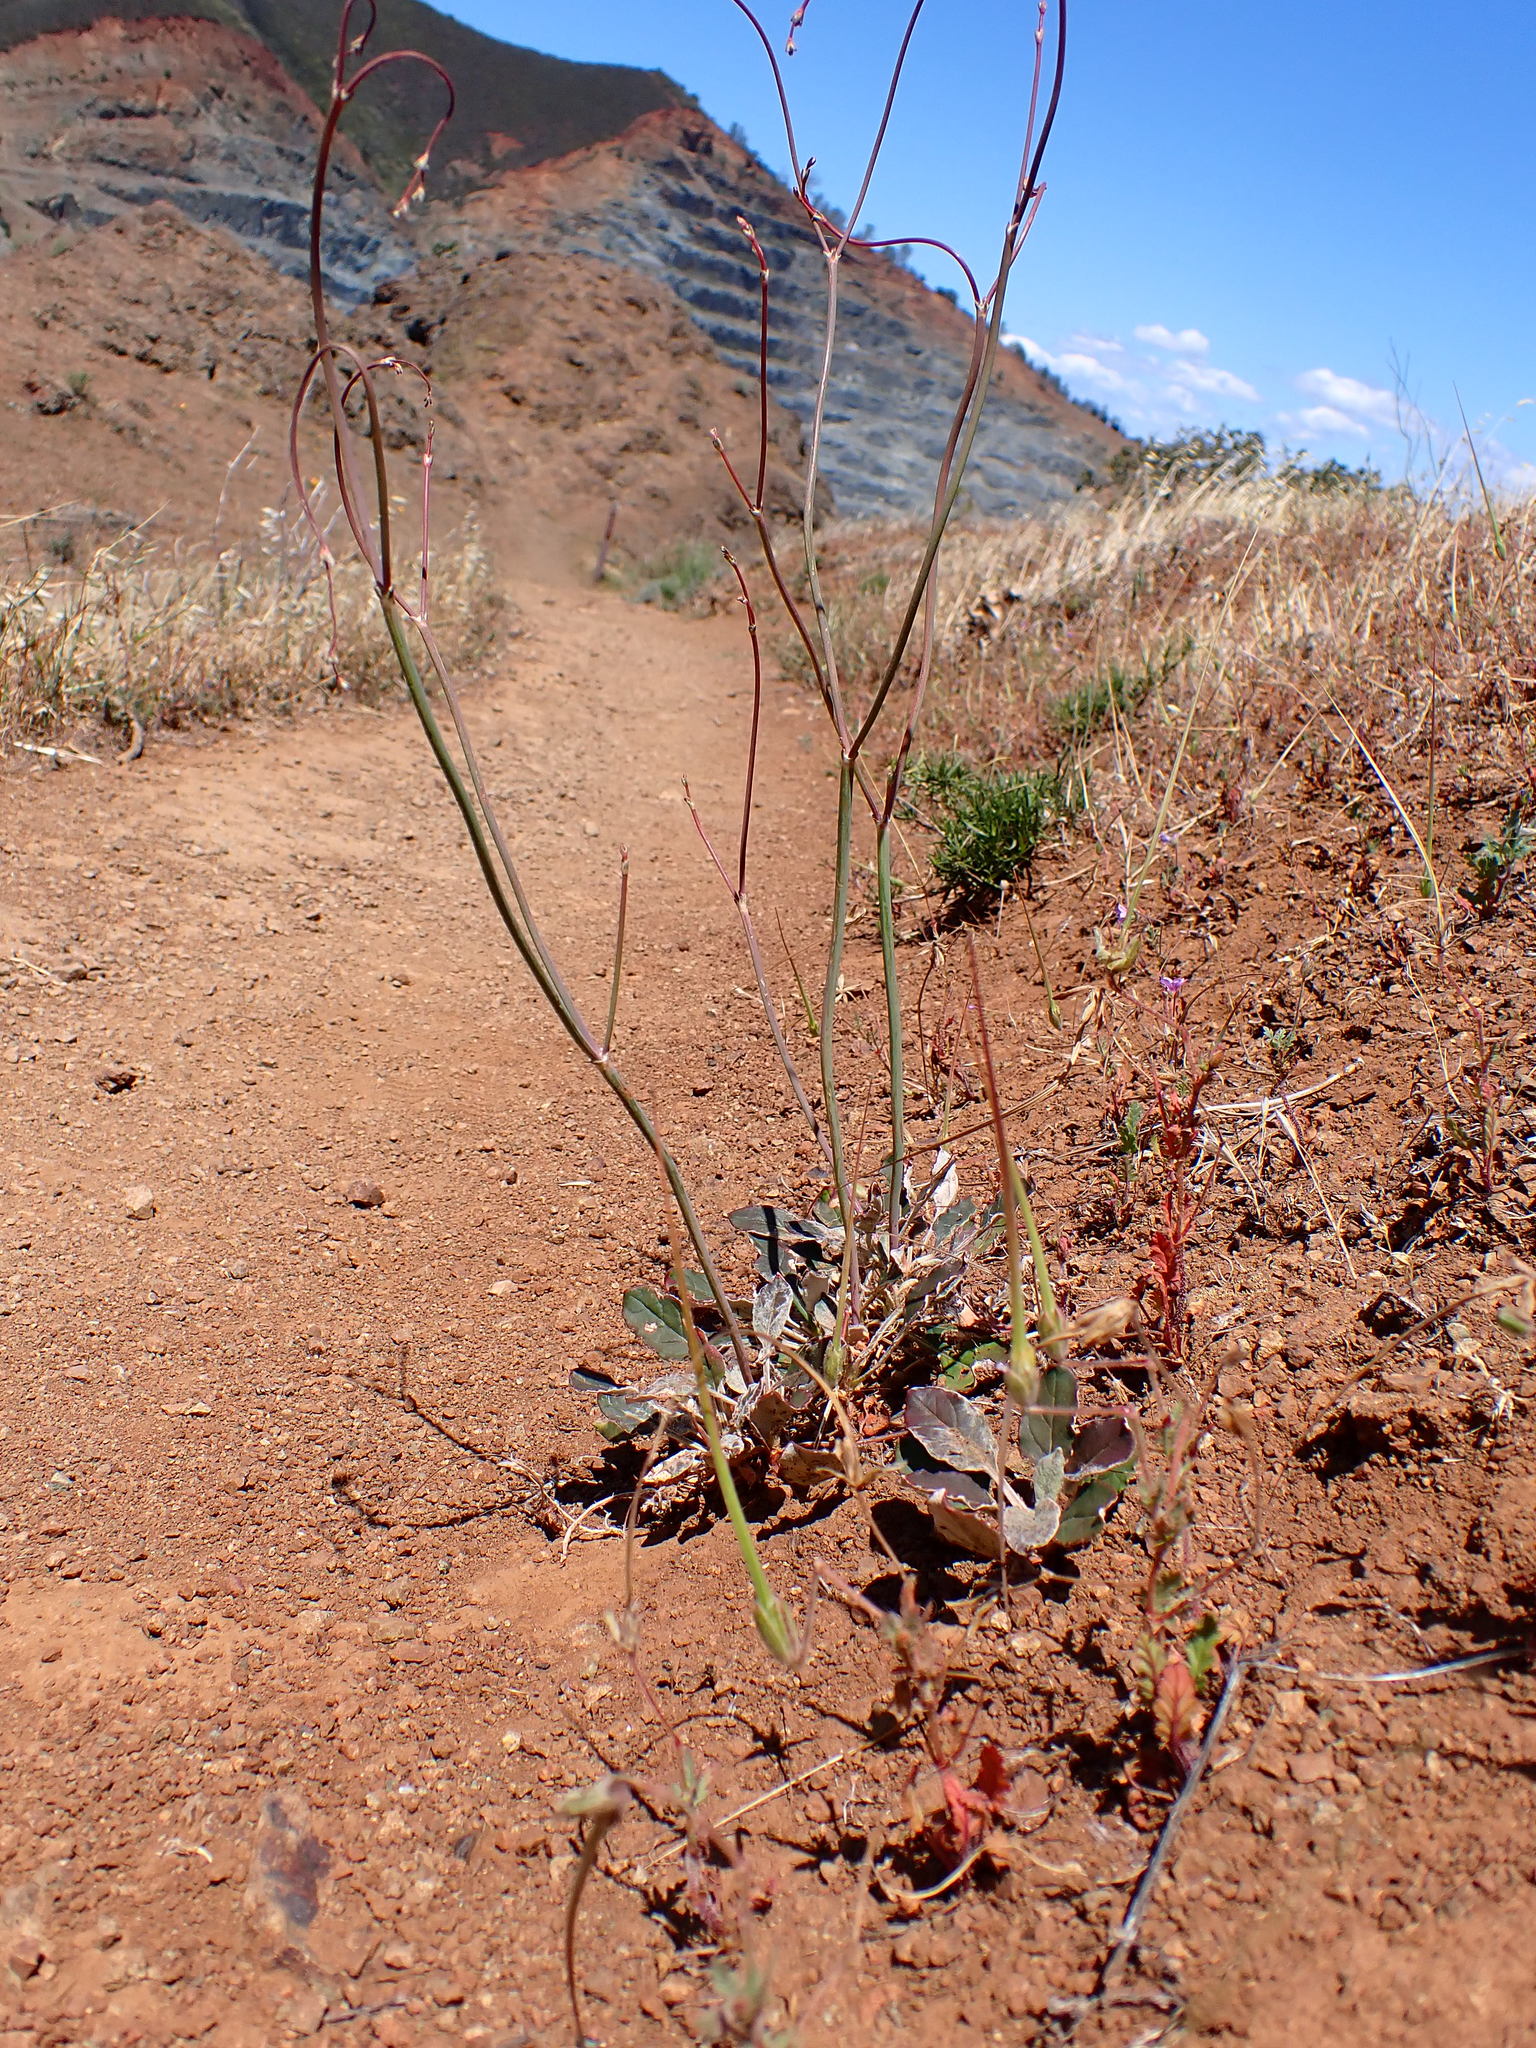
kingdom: Plantae
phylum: Tracheophyta
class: Magnoliopsida
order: Caryophyllales
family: Polygonaceae
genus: Eriogonum
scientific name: Eriogonum nudum
